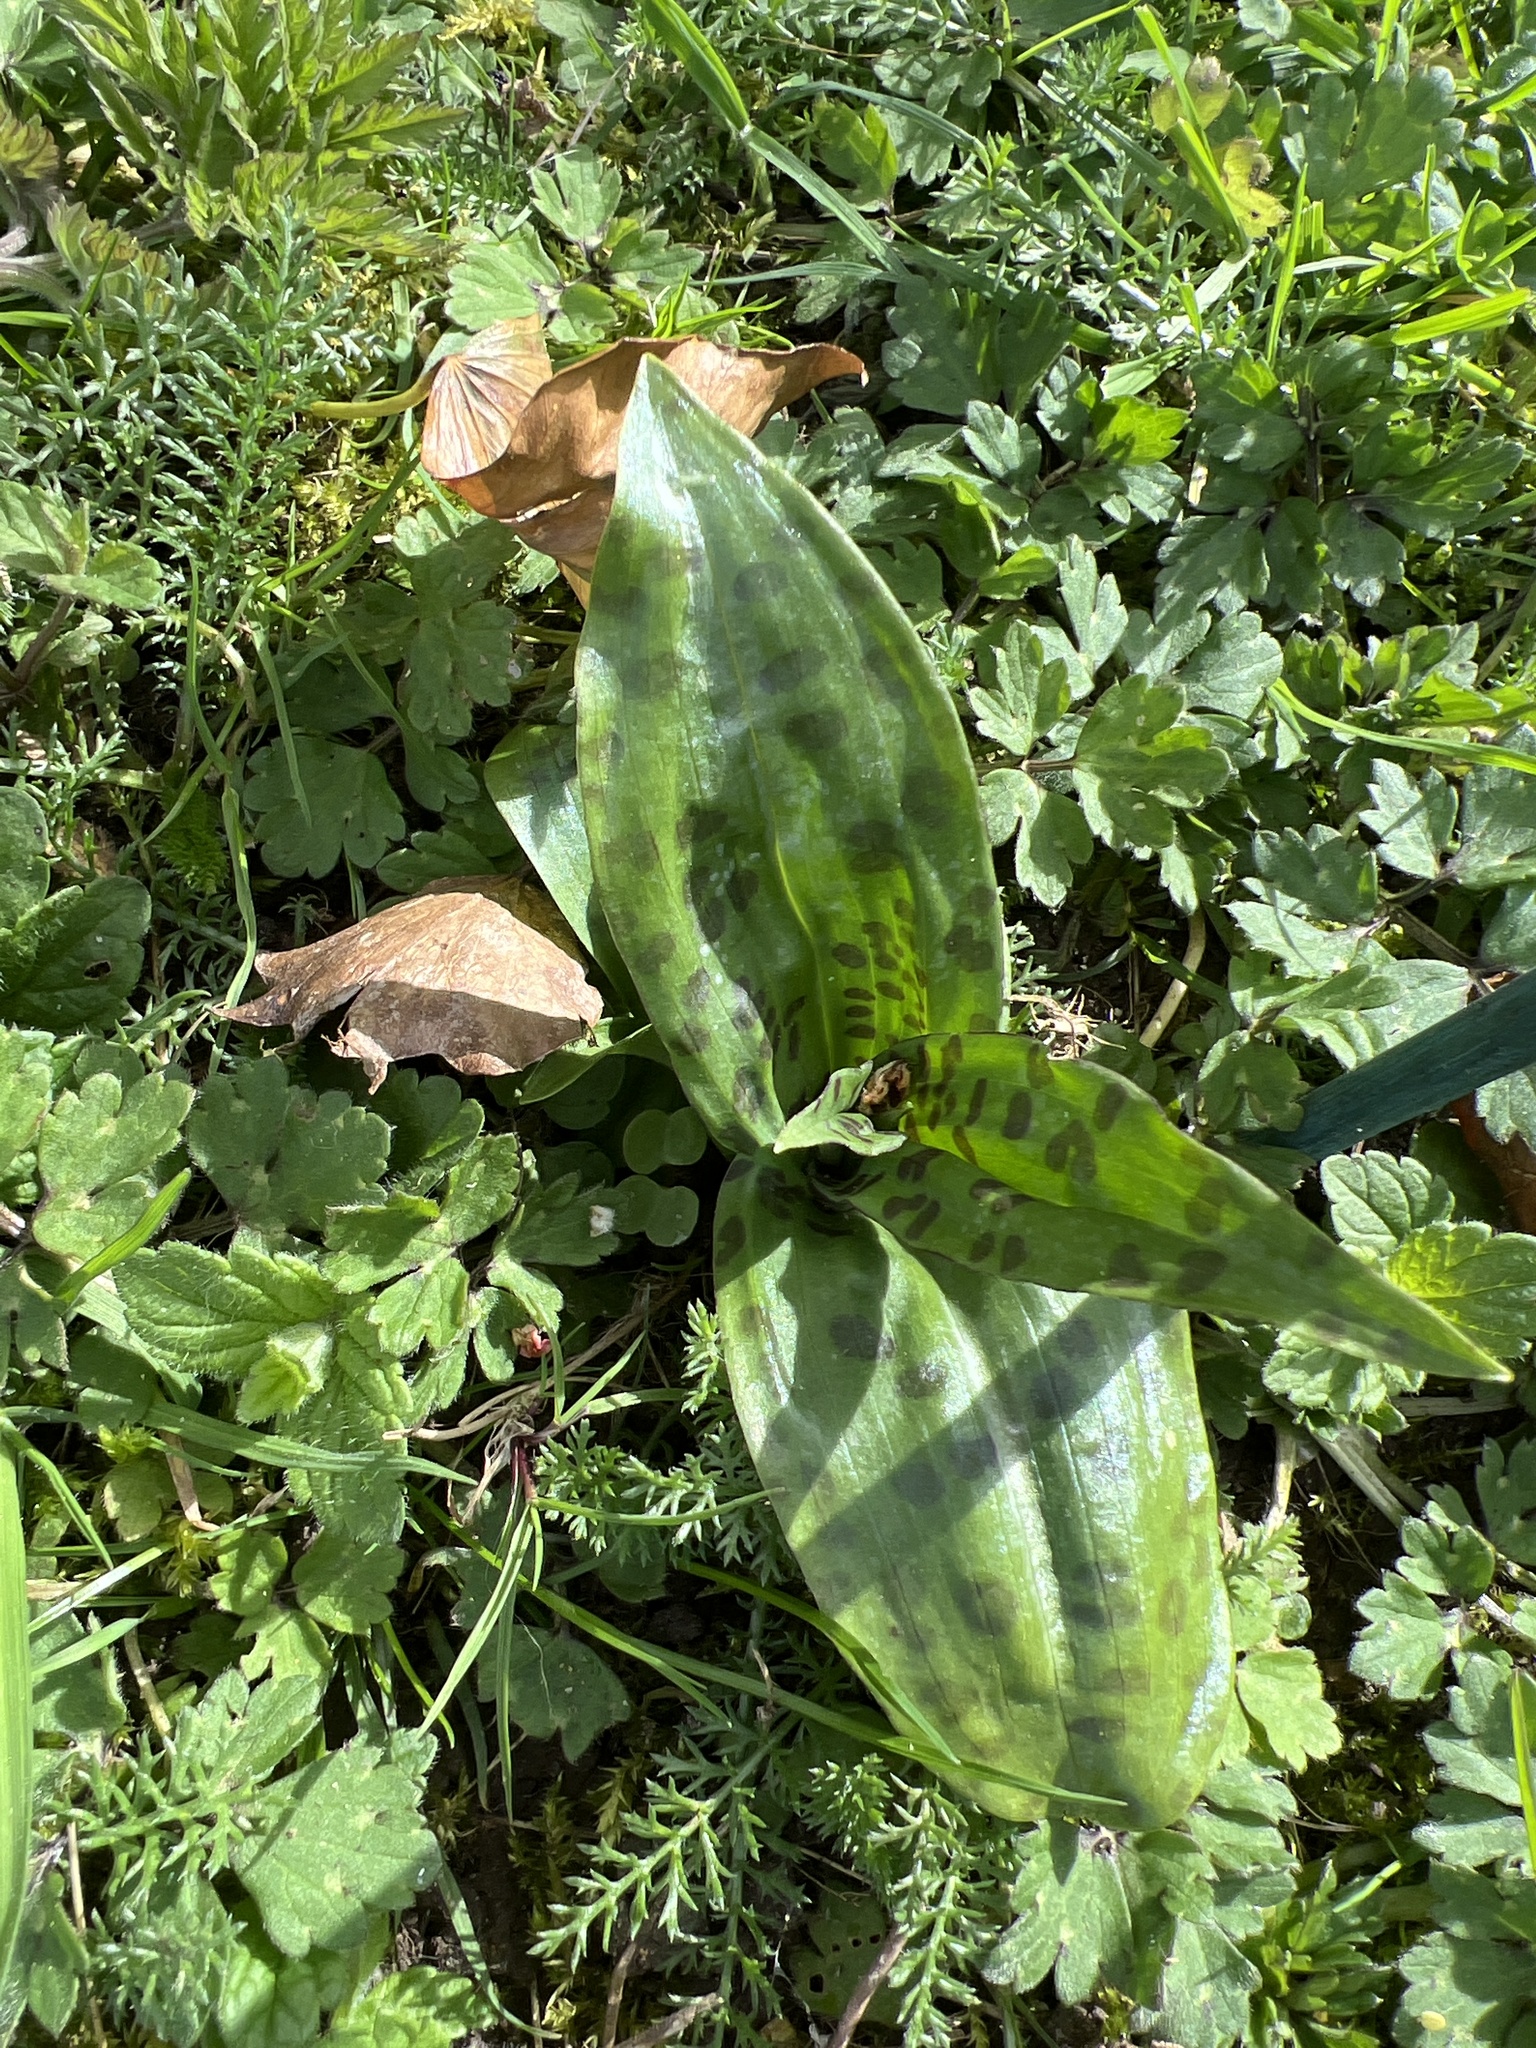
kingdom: Plantae
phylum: Tracheophyta
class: Liliopsida
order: Asparagales
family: Orchidaceae
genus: Dactylorhiza
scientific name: Dactylorhiza maculata
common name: Heath spotted-orchid
